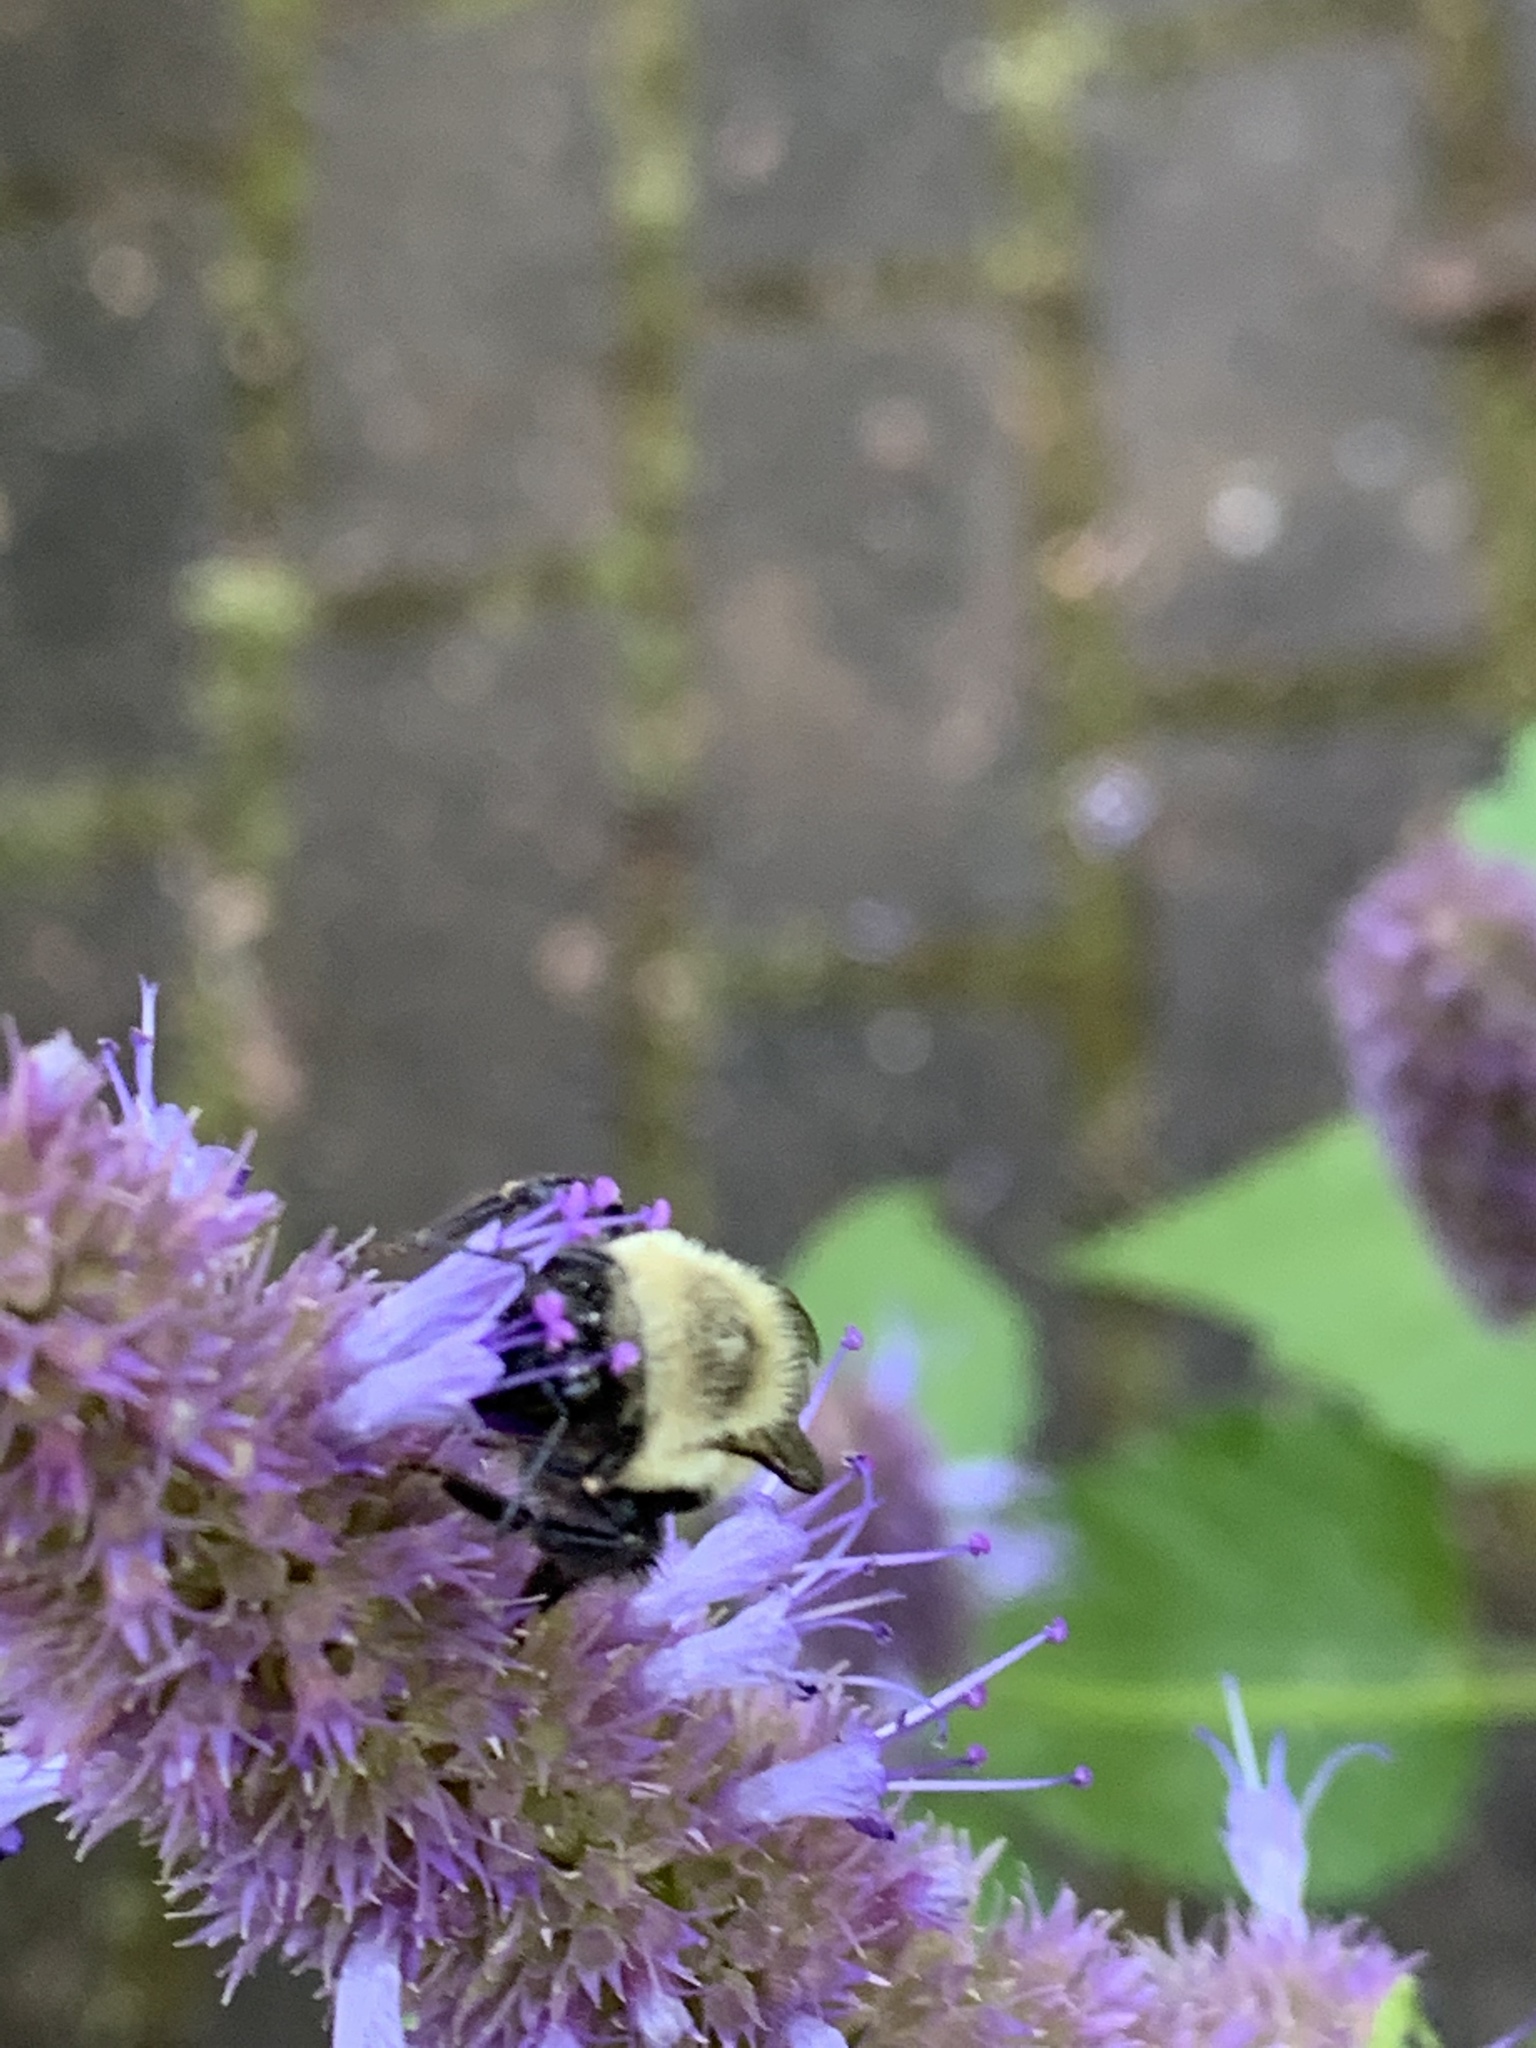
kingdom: Animalia
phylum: Arthropoda
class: Insecta
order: Hymenoptera
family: Apidae
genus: Bombus
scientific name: Bombus impatiens
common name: Common eastern bumble bee
